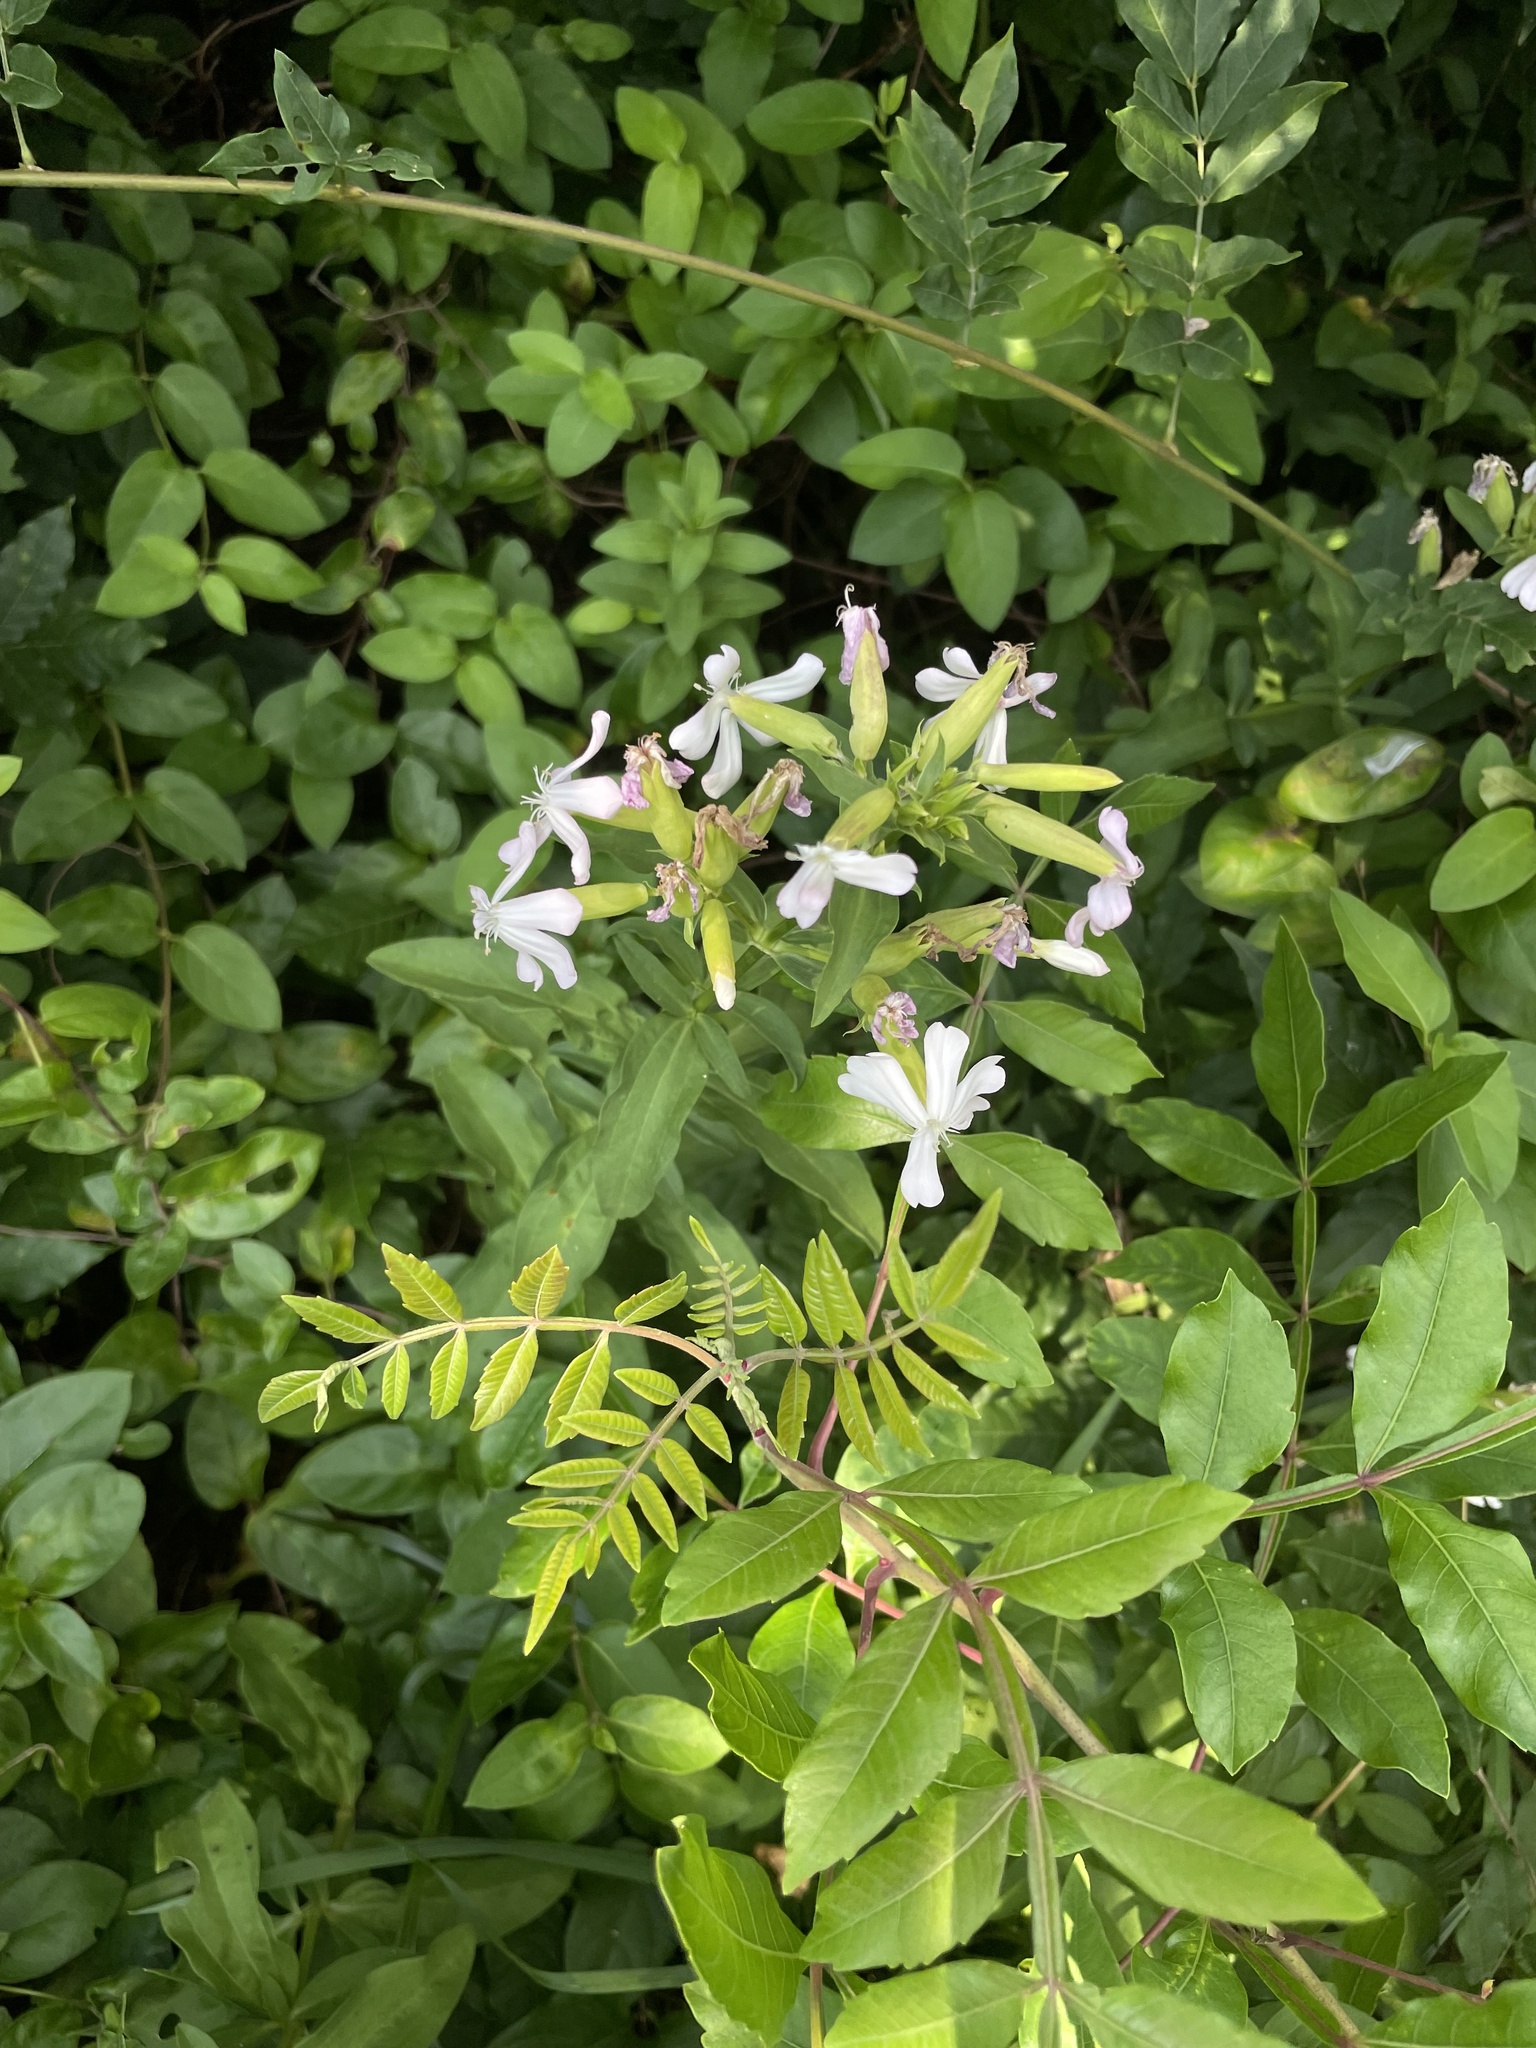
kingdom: Plantae
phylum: Tracheophyta
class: Magnoliopsida
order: Caryophyllales
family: Caryophyllaceae
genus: Saponaria
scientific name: Saponaria officinalis
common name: Soapwort
